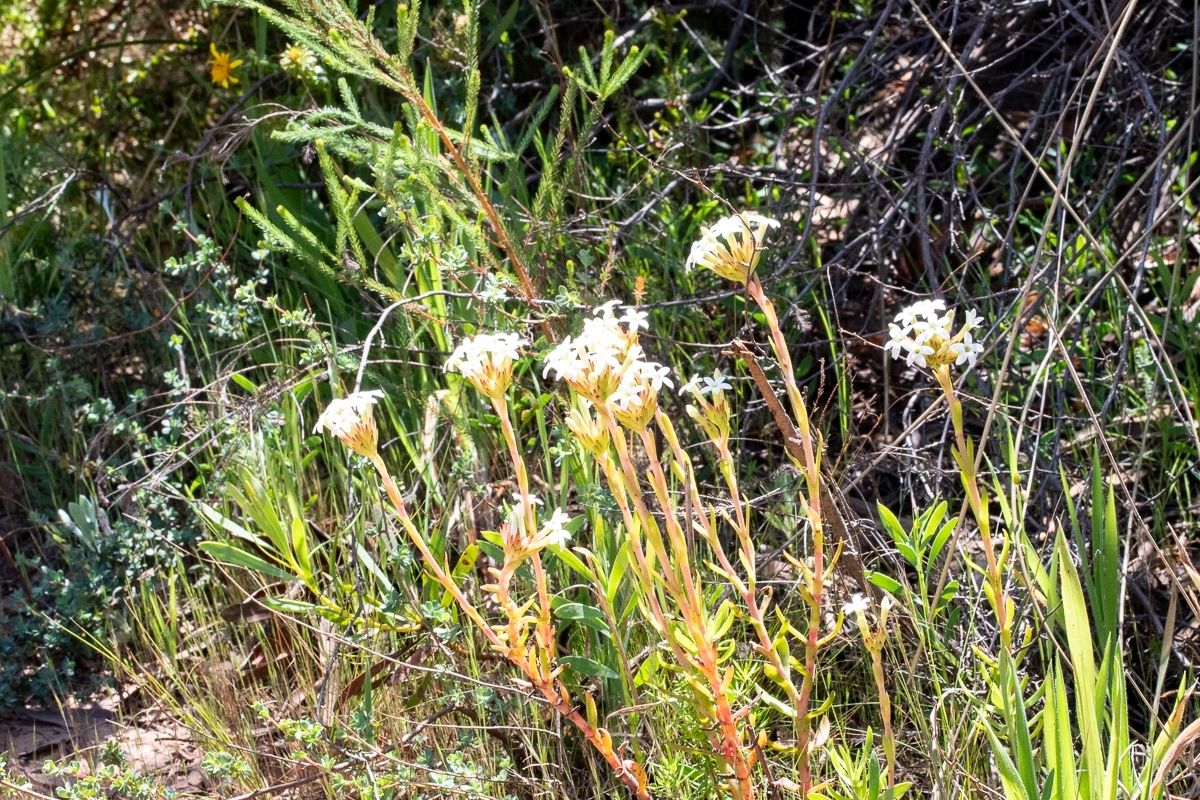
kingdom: Plantae
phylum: Tracheophyta
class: Magnoliopsida
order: Saxifragales
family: Crassulaceae
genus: Crassula
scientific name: Crassula fascicularis
